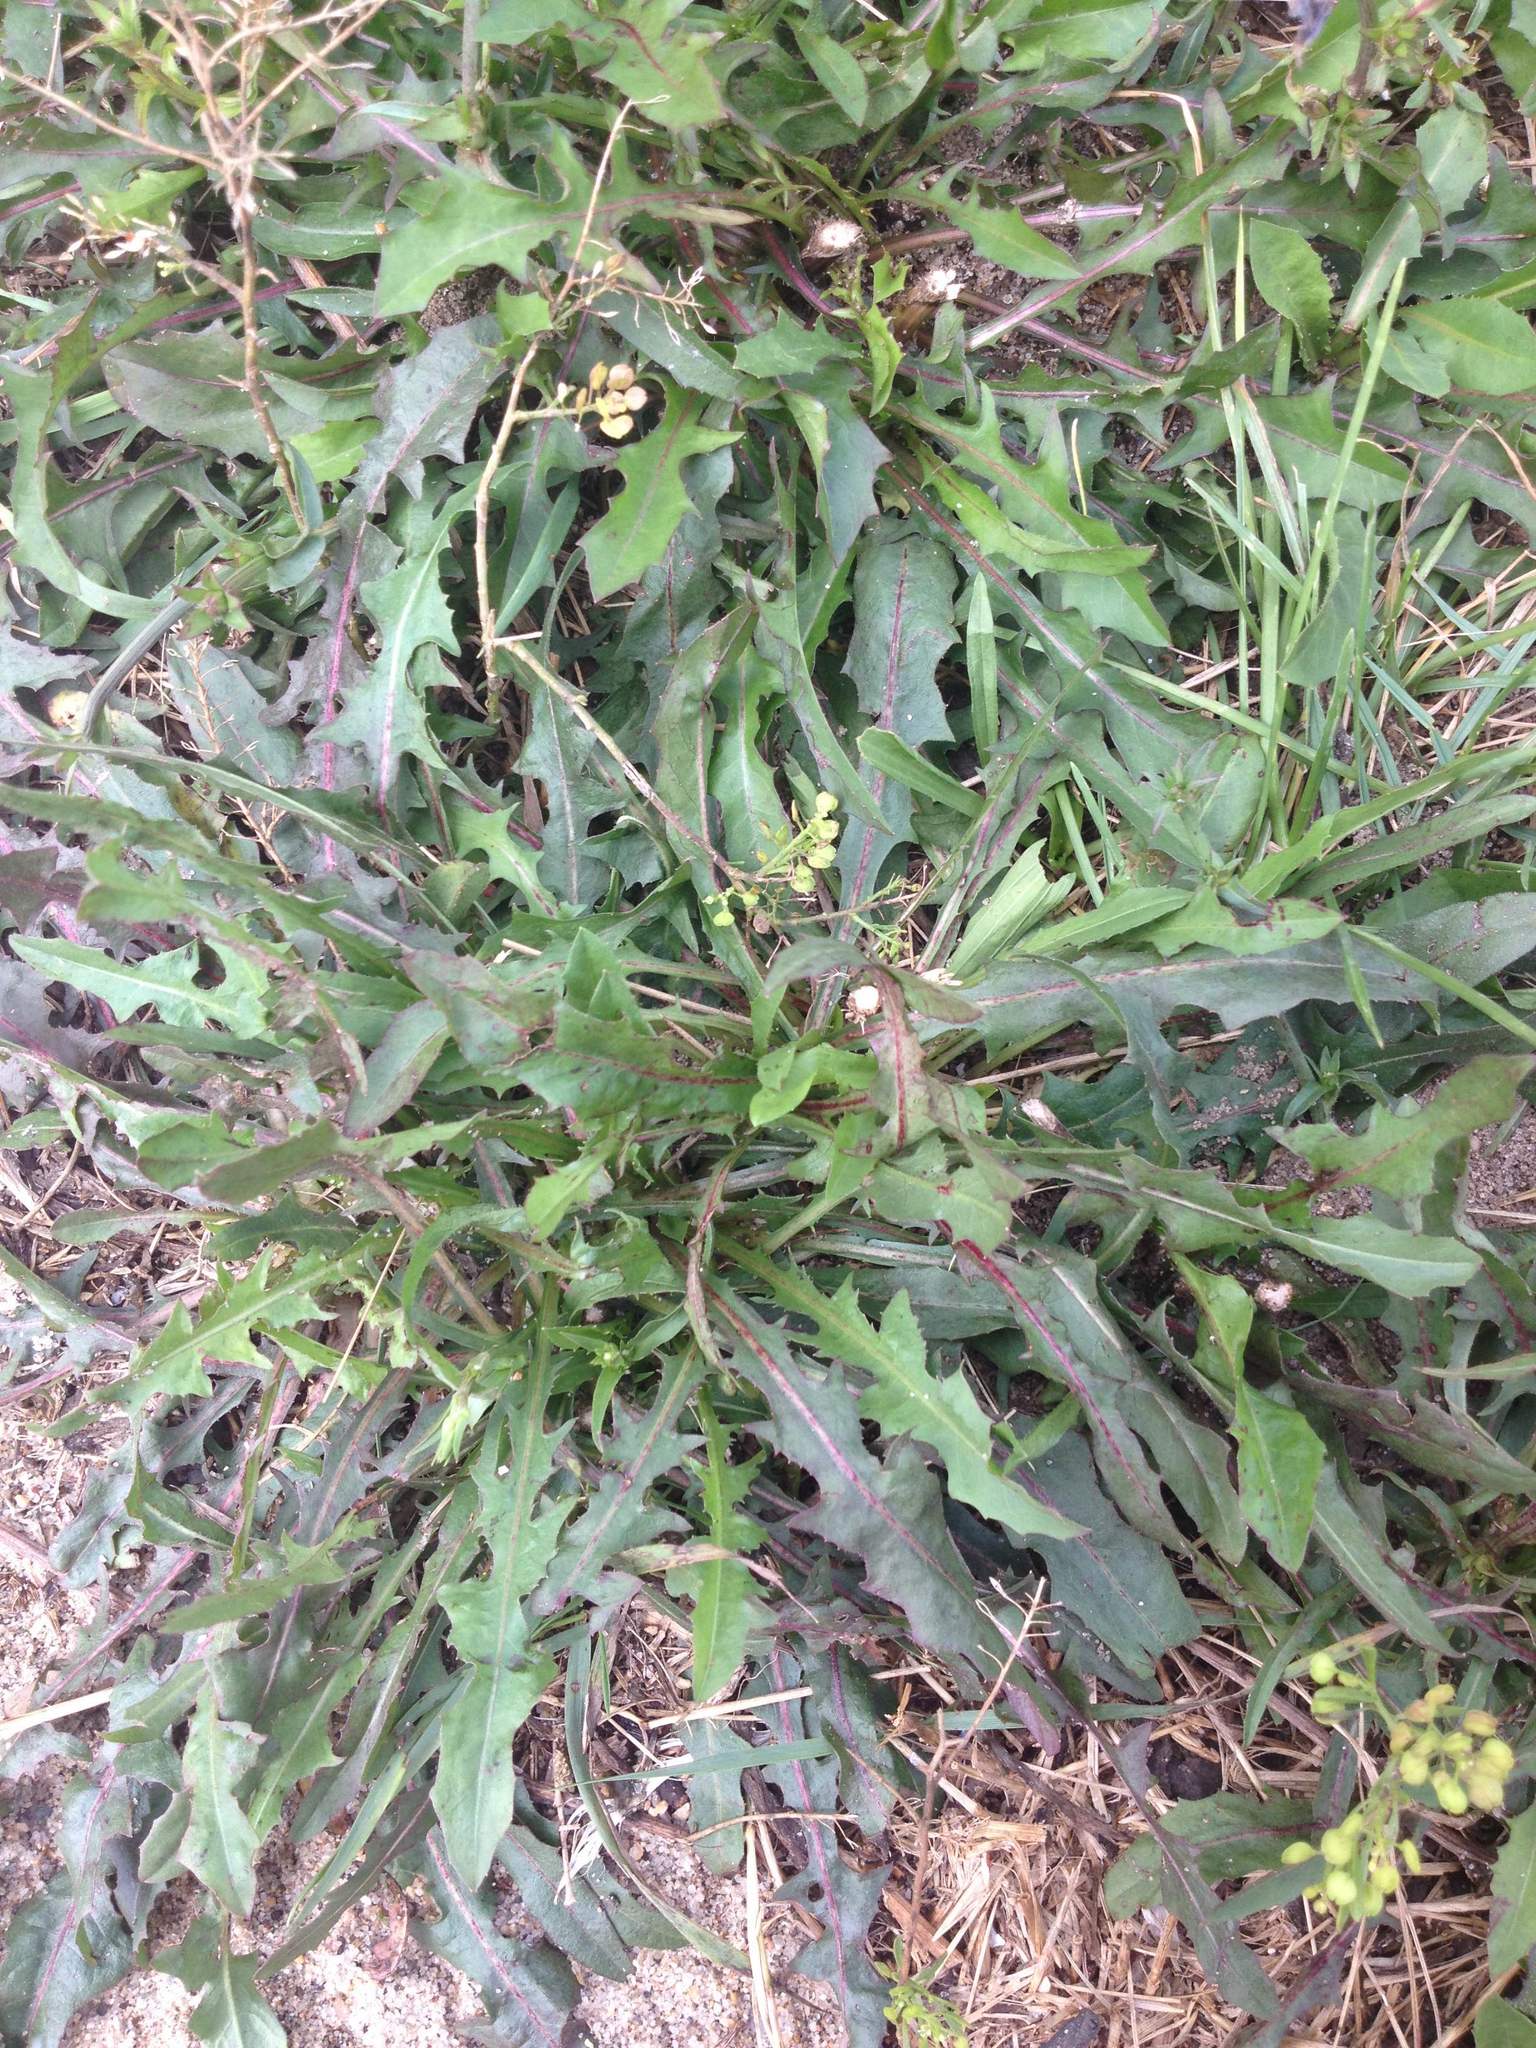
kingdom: Plantae
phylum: Tracheophyta
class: Magnoliopsida
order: Asterales
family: Asteraceae
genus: Cichorium
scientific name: Cichorium intybus
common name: Chicory
